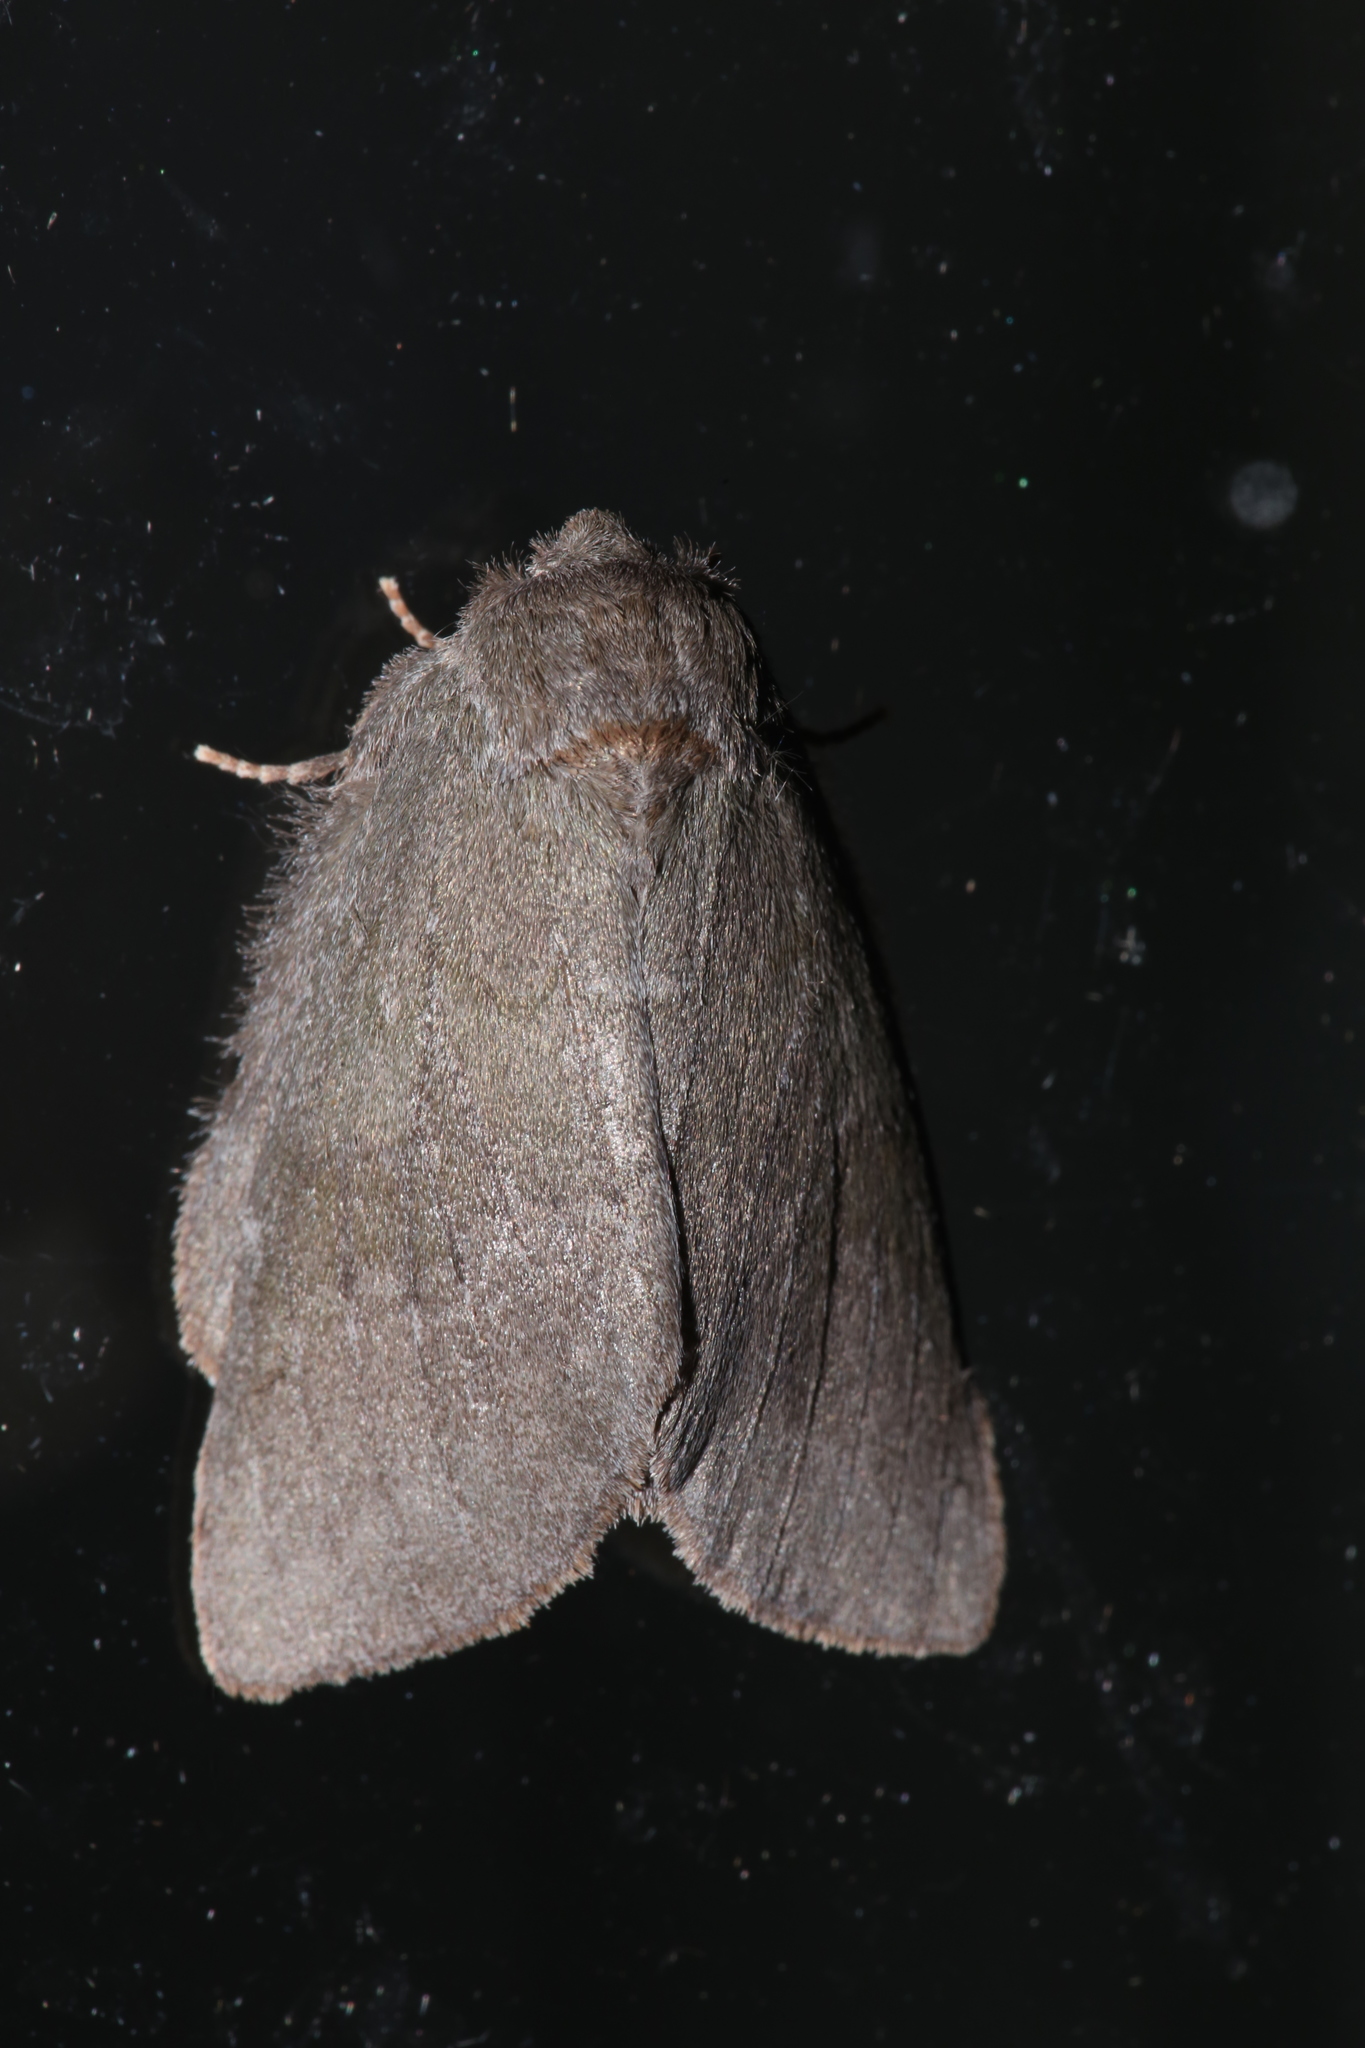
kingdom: Animalia
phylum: Arthropoda
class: Insecta
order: Lepidoptera
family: Notodontidae
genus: Misogada
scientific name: Misogada unicolor
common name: Drab prominent
